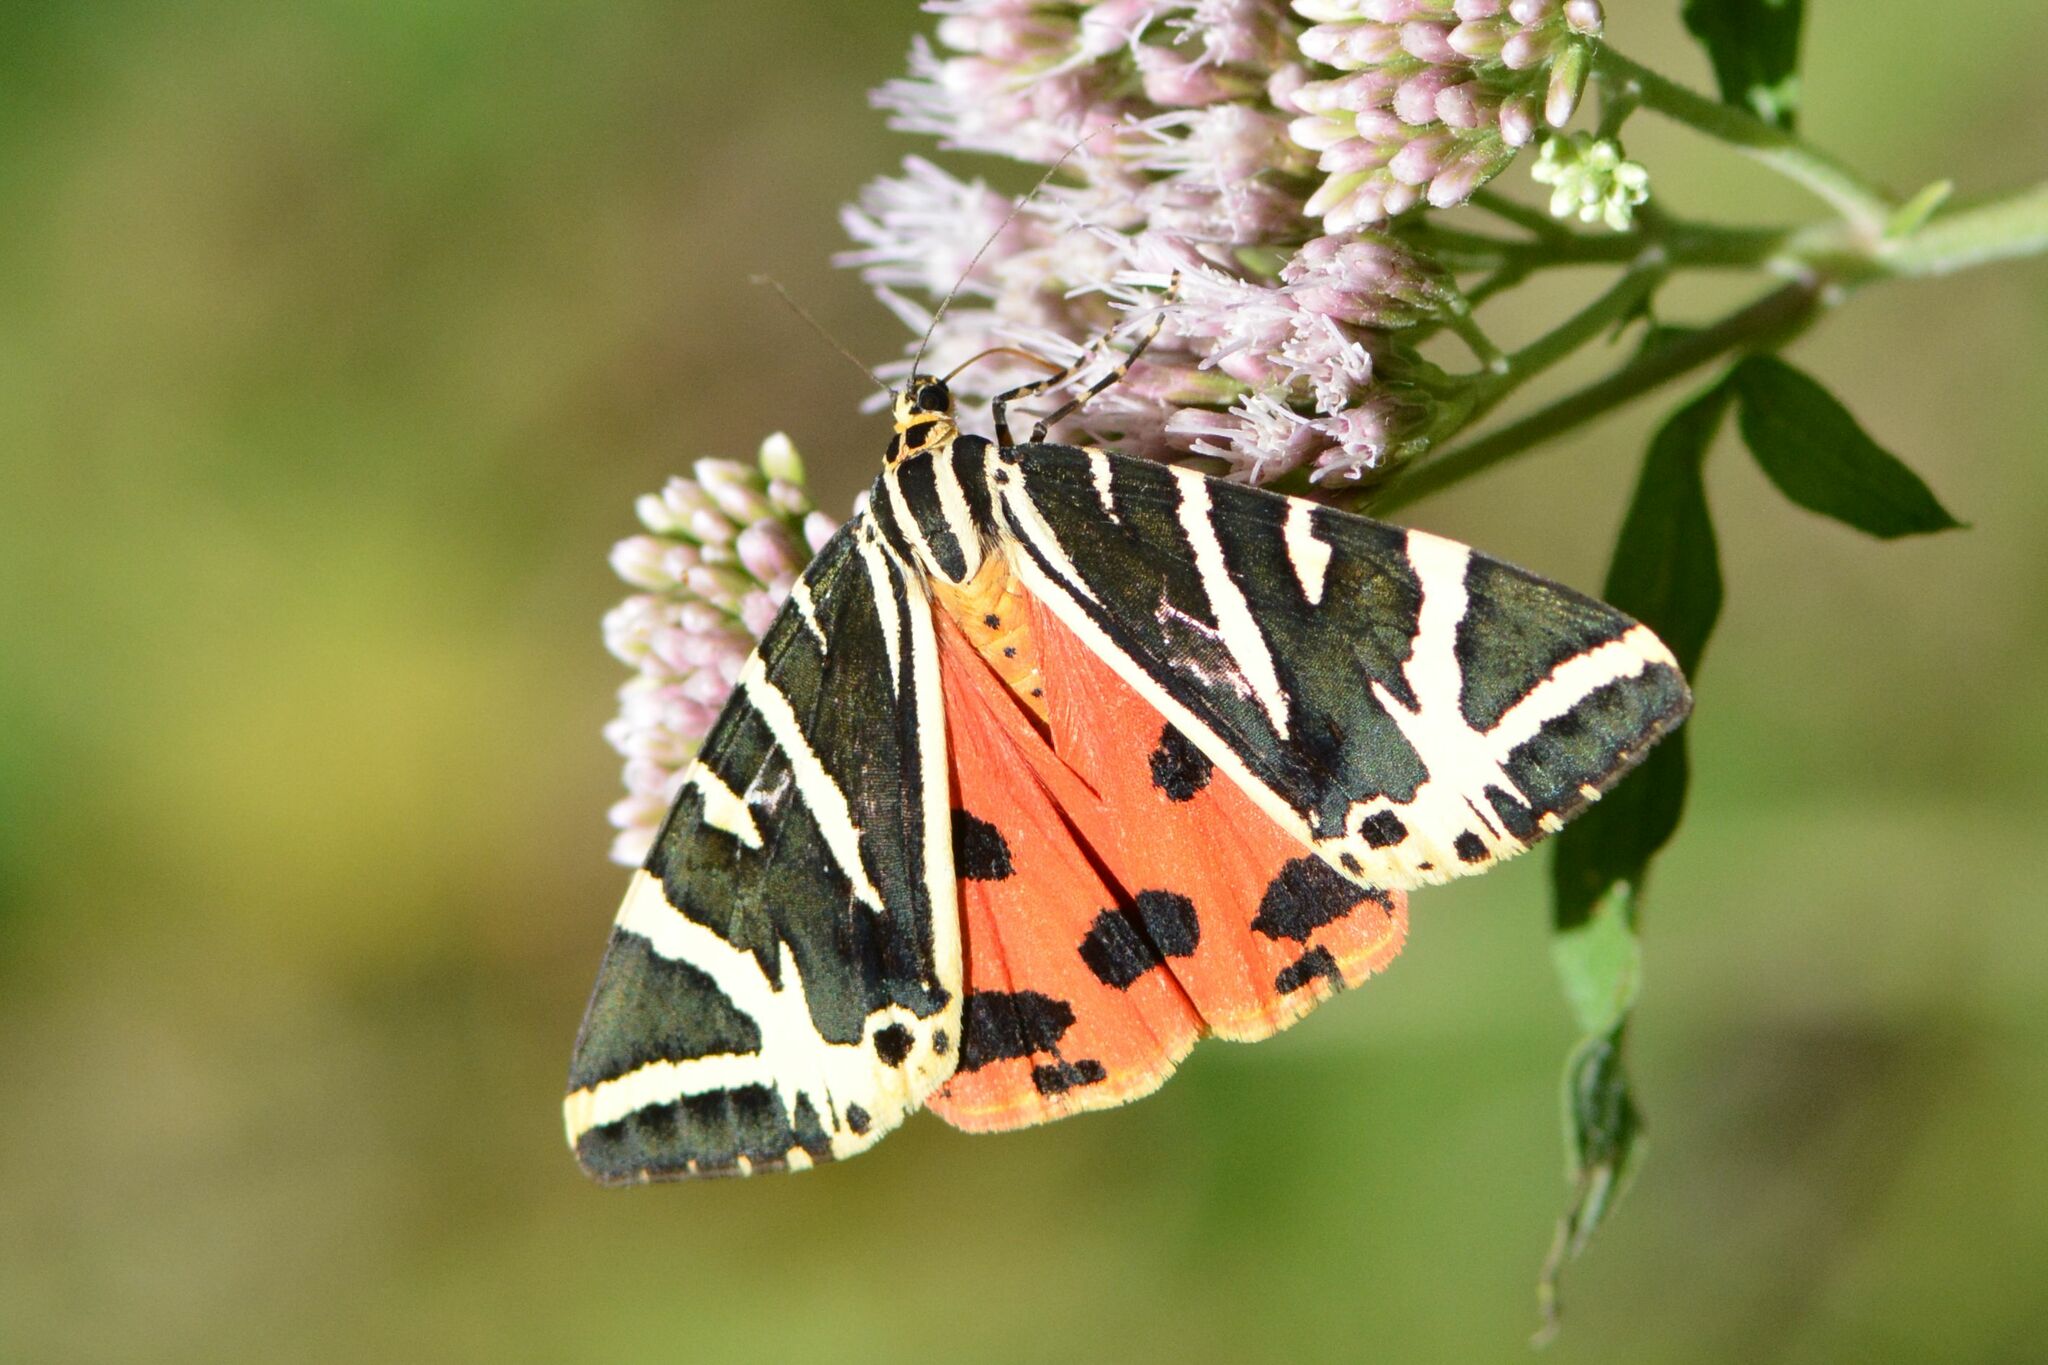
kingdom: Animalia
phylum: Arthropoda
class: Insecta
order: Lepidoptera
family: Erebidae
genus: Euplagia
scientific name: Euplagia quadripunctaria
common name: Jersey tiger
